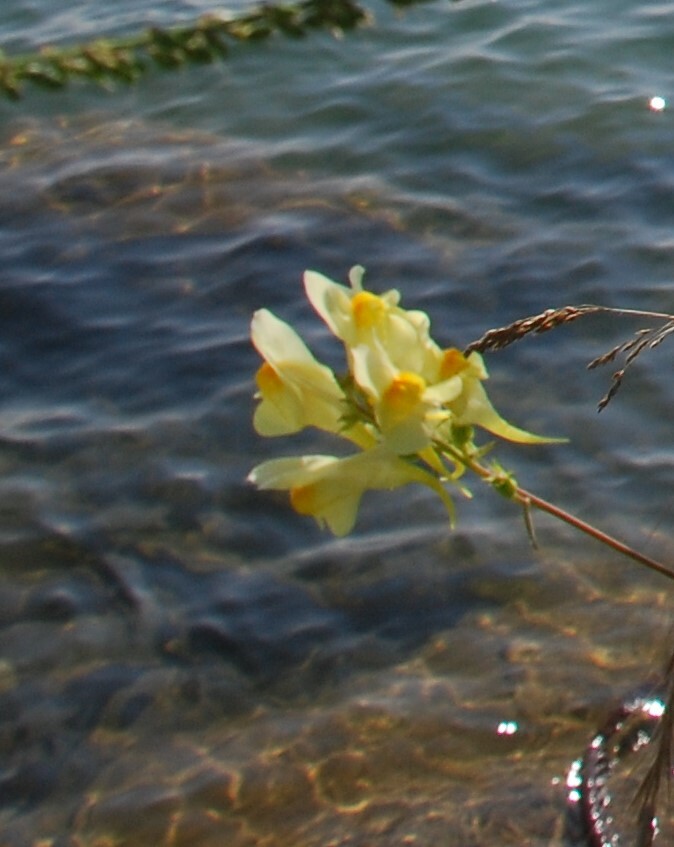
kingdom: Plantae
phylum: Tracheophyta
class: Magnoliopsida
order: Lamiales
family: Plantaginaceae
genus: Linaria
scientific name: Linaria vulgaris
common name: Butter and eggs
